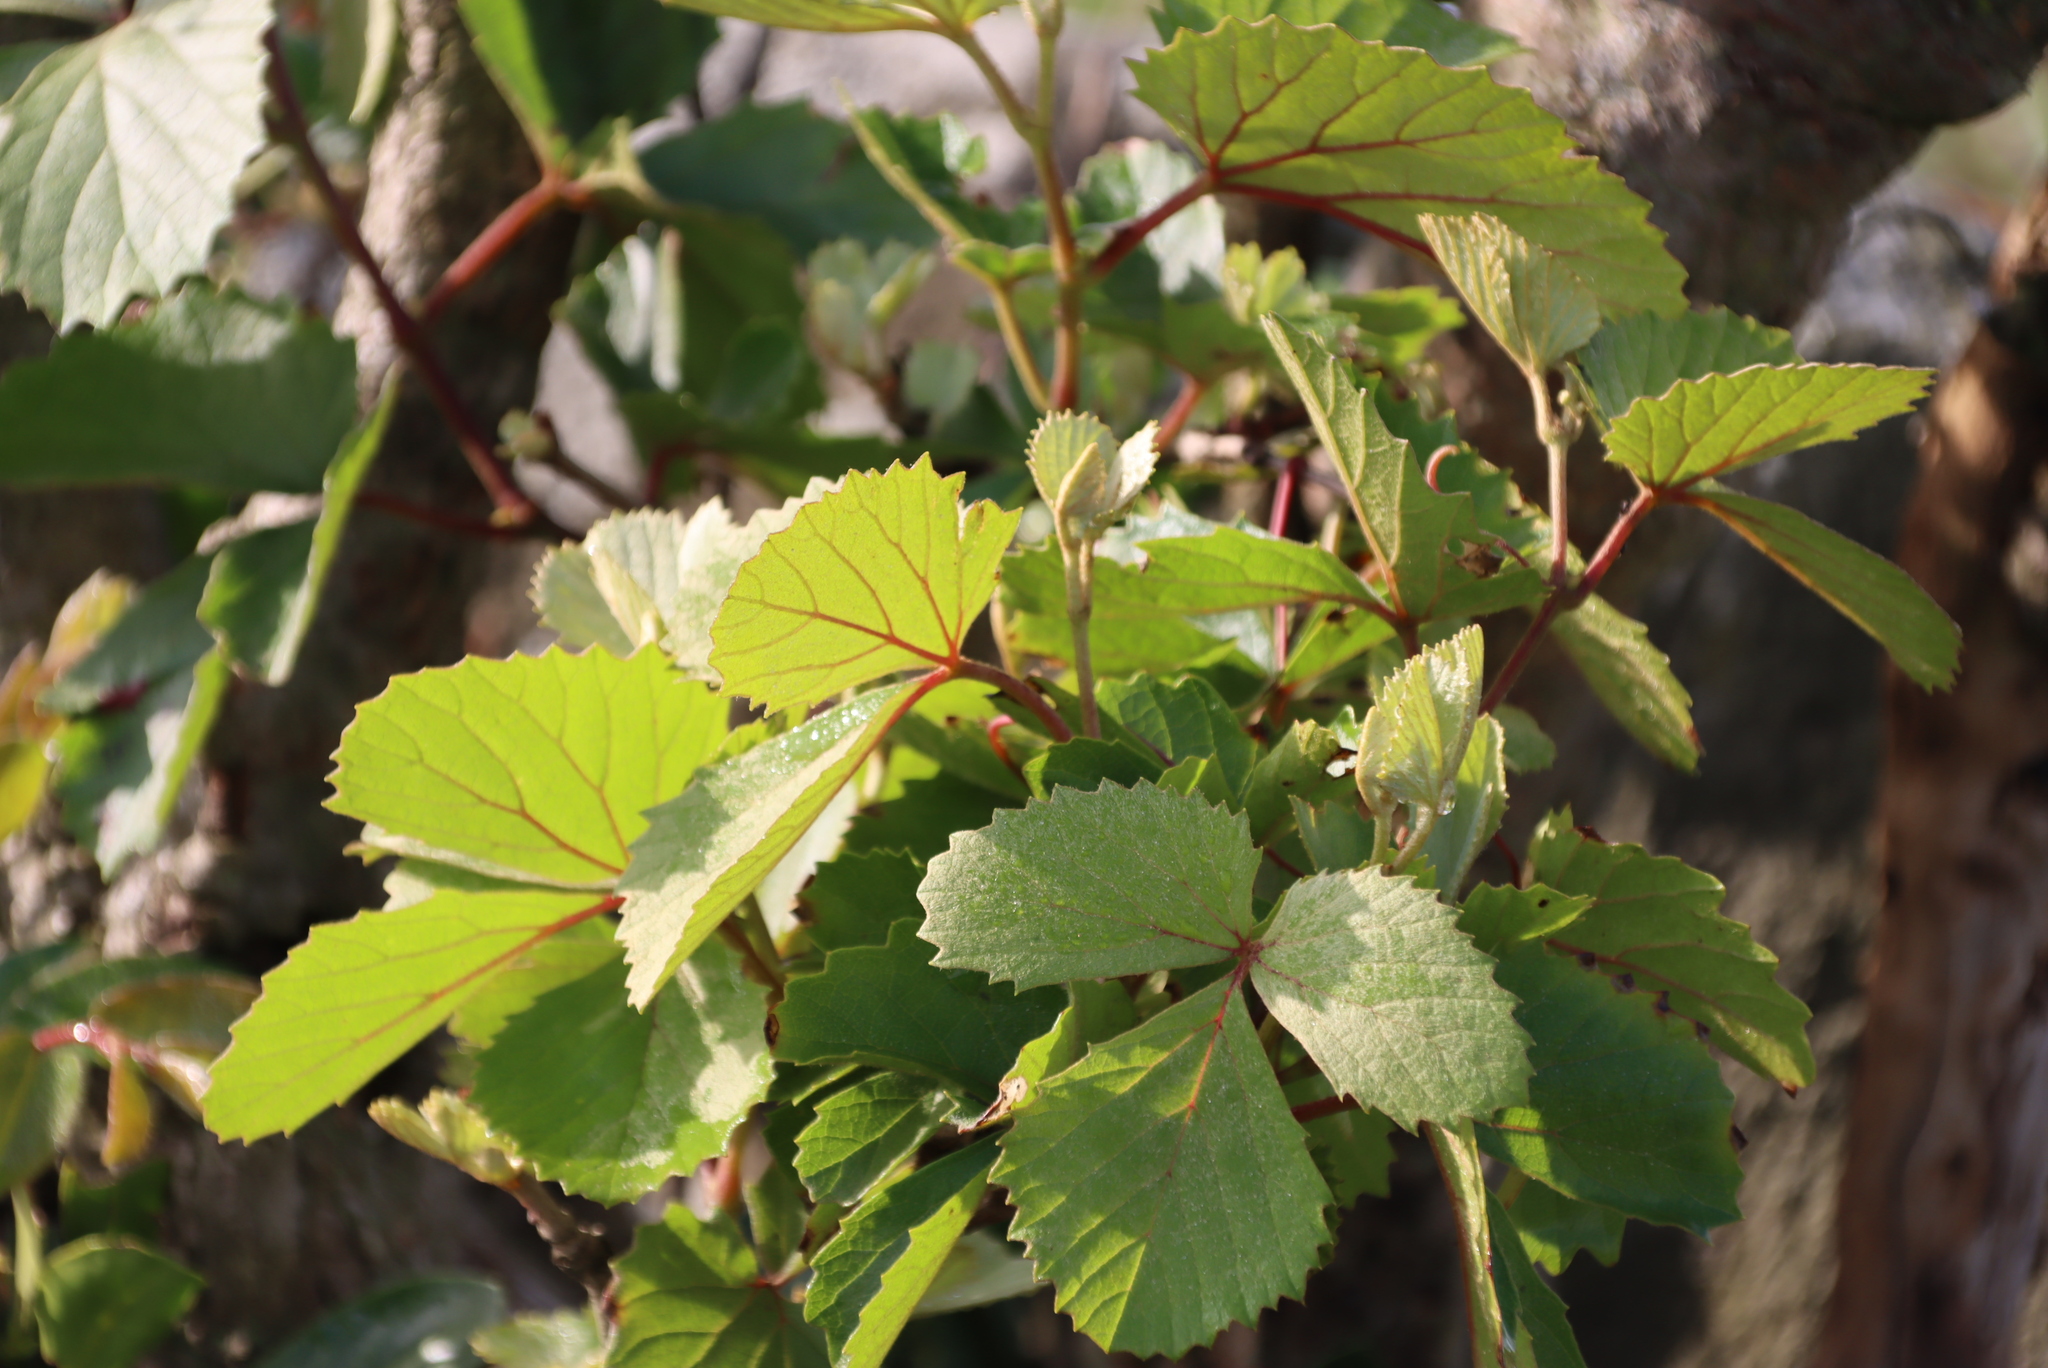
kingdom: Plantae
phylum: Tracheophyta
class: Magnoliopsida
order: Vitales
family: Vitaceae
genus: Rhoicissus
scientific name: Rhoicissus tridentata
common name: Common forest grape
